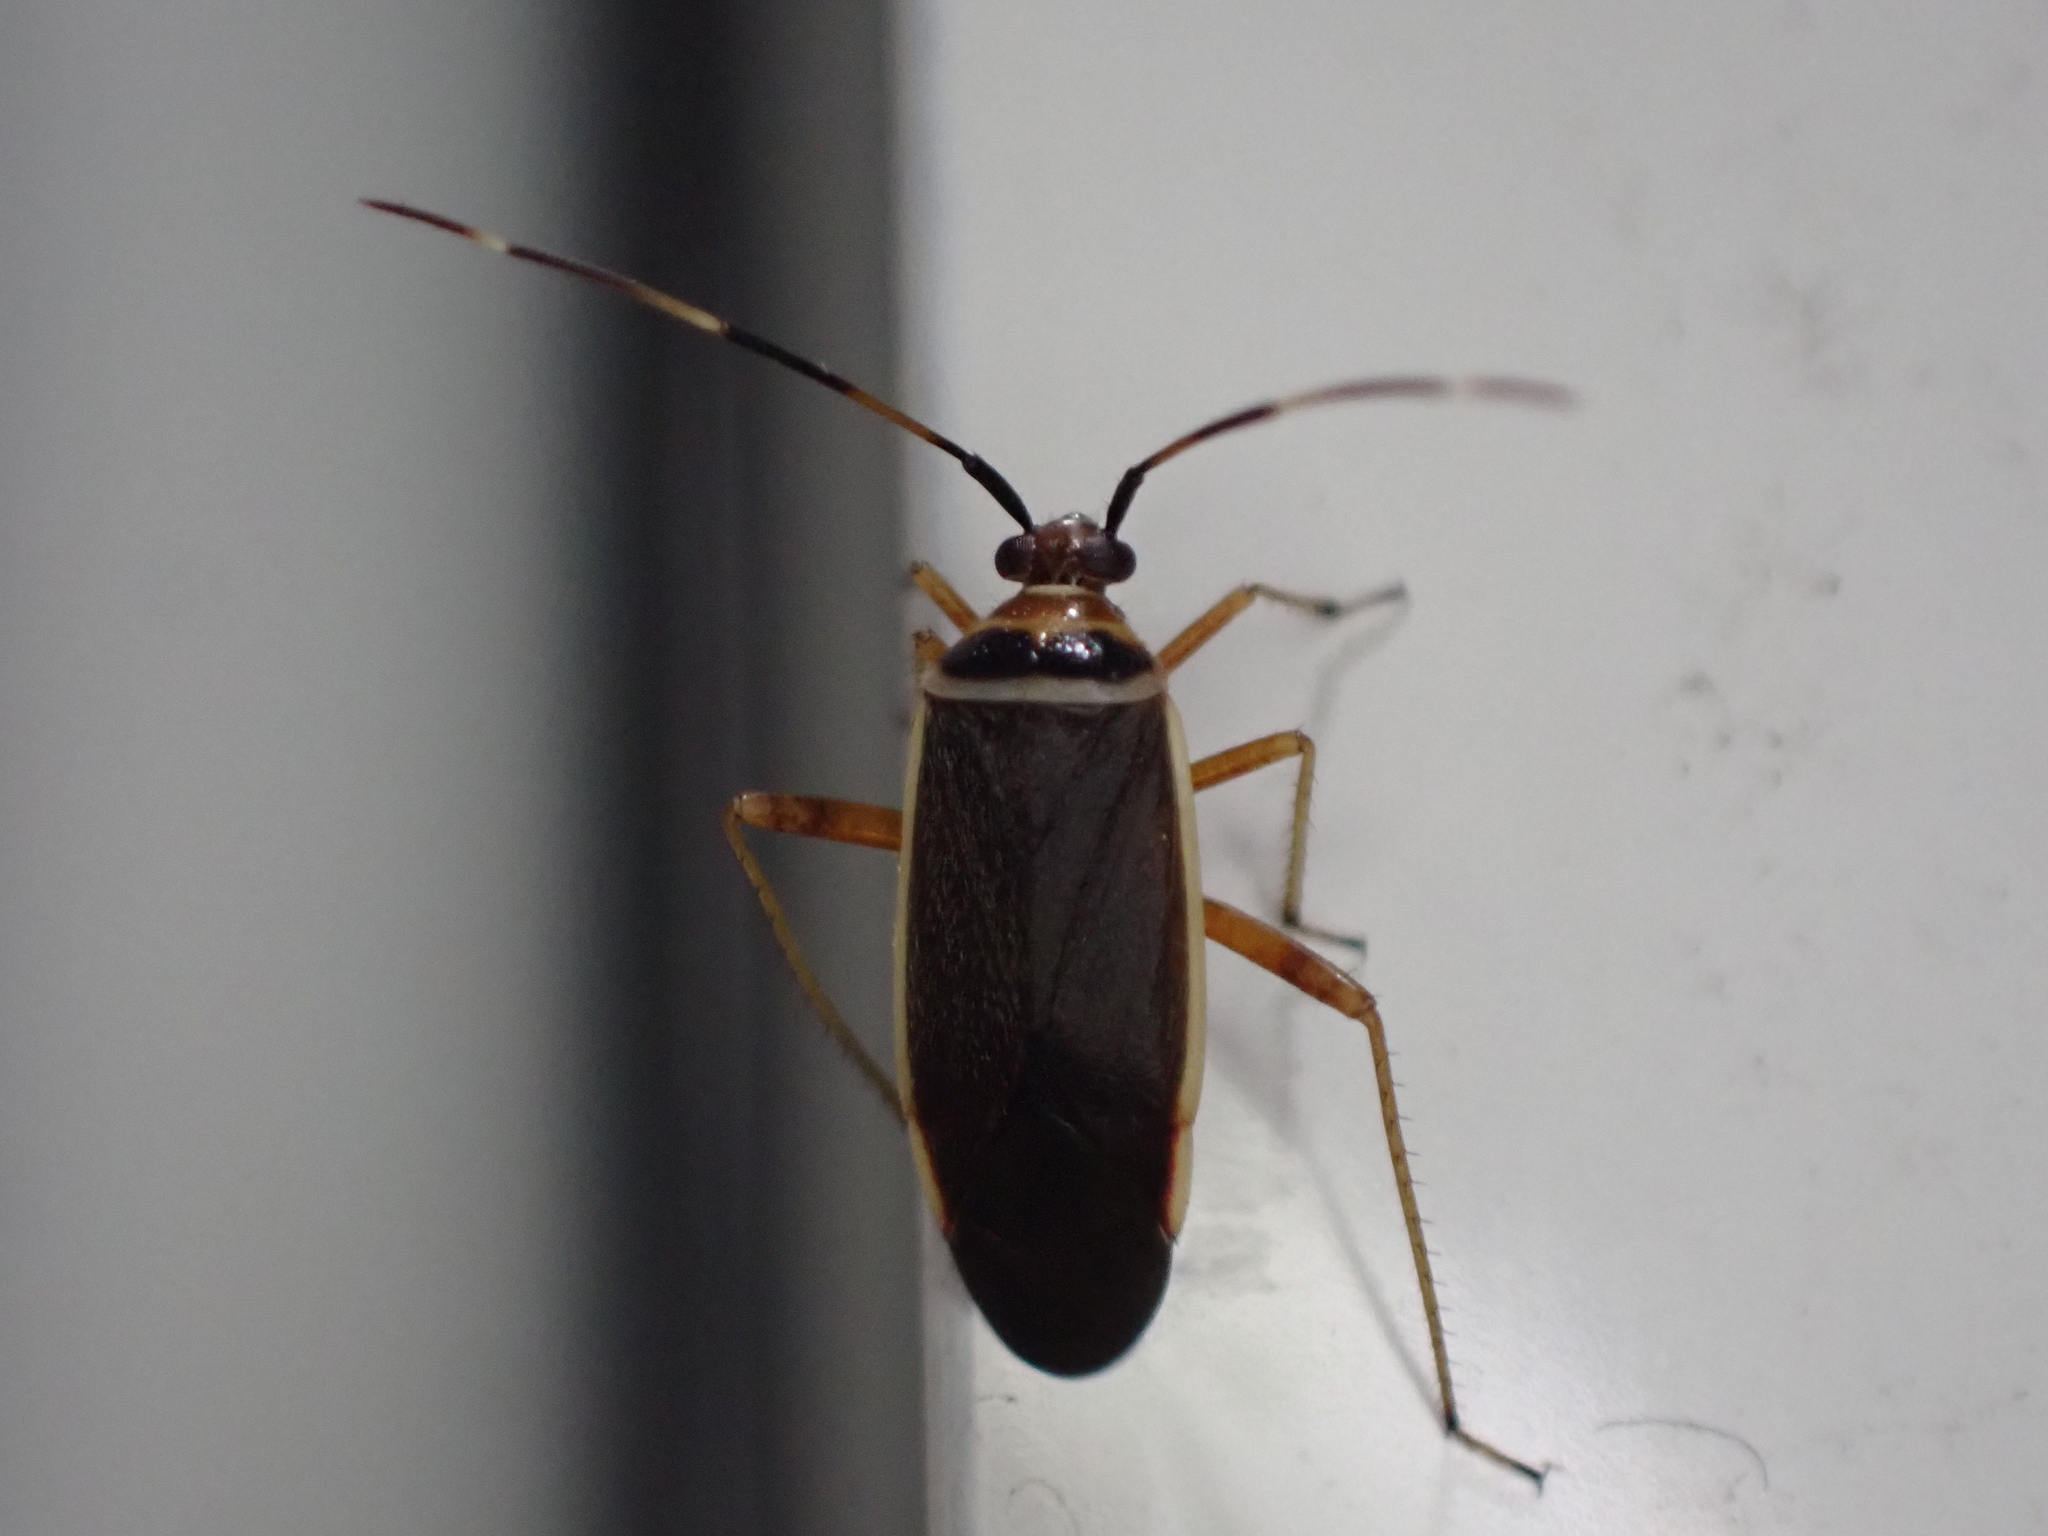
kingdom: Animalia
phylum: Arthropoda
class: Insecta
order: Hemiptera
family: Miridae
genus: Adelphocoris
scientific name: Adelphocoris rapidus
